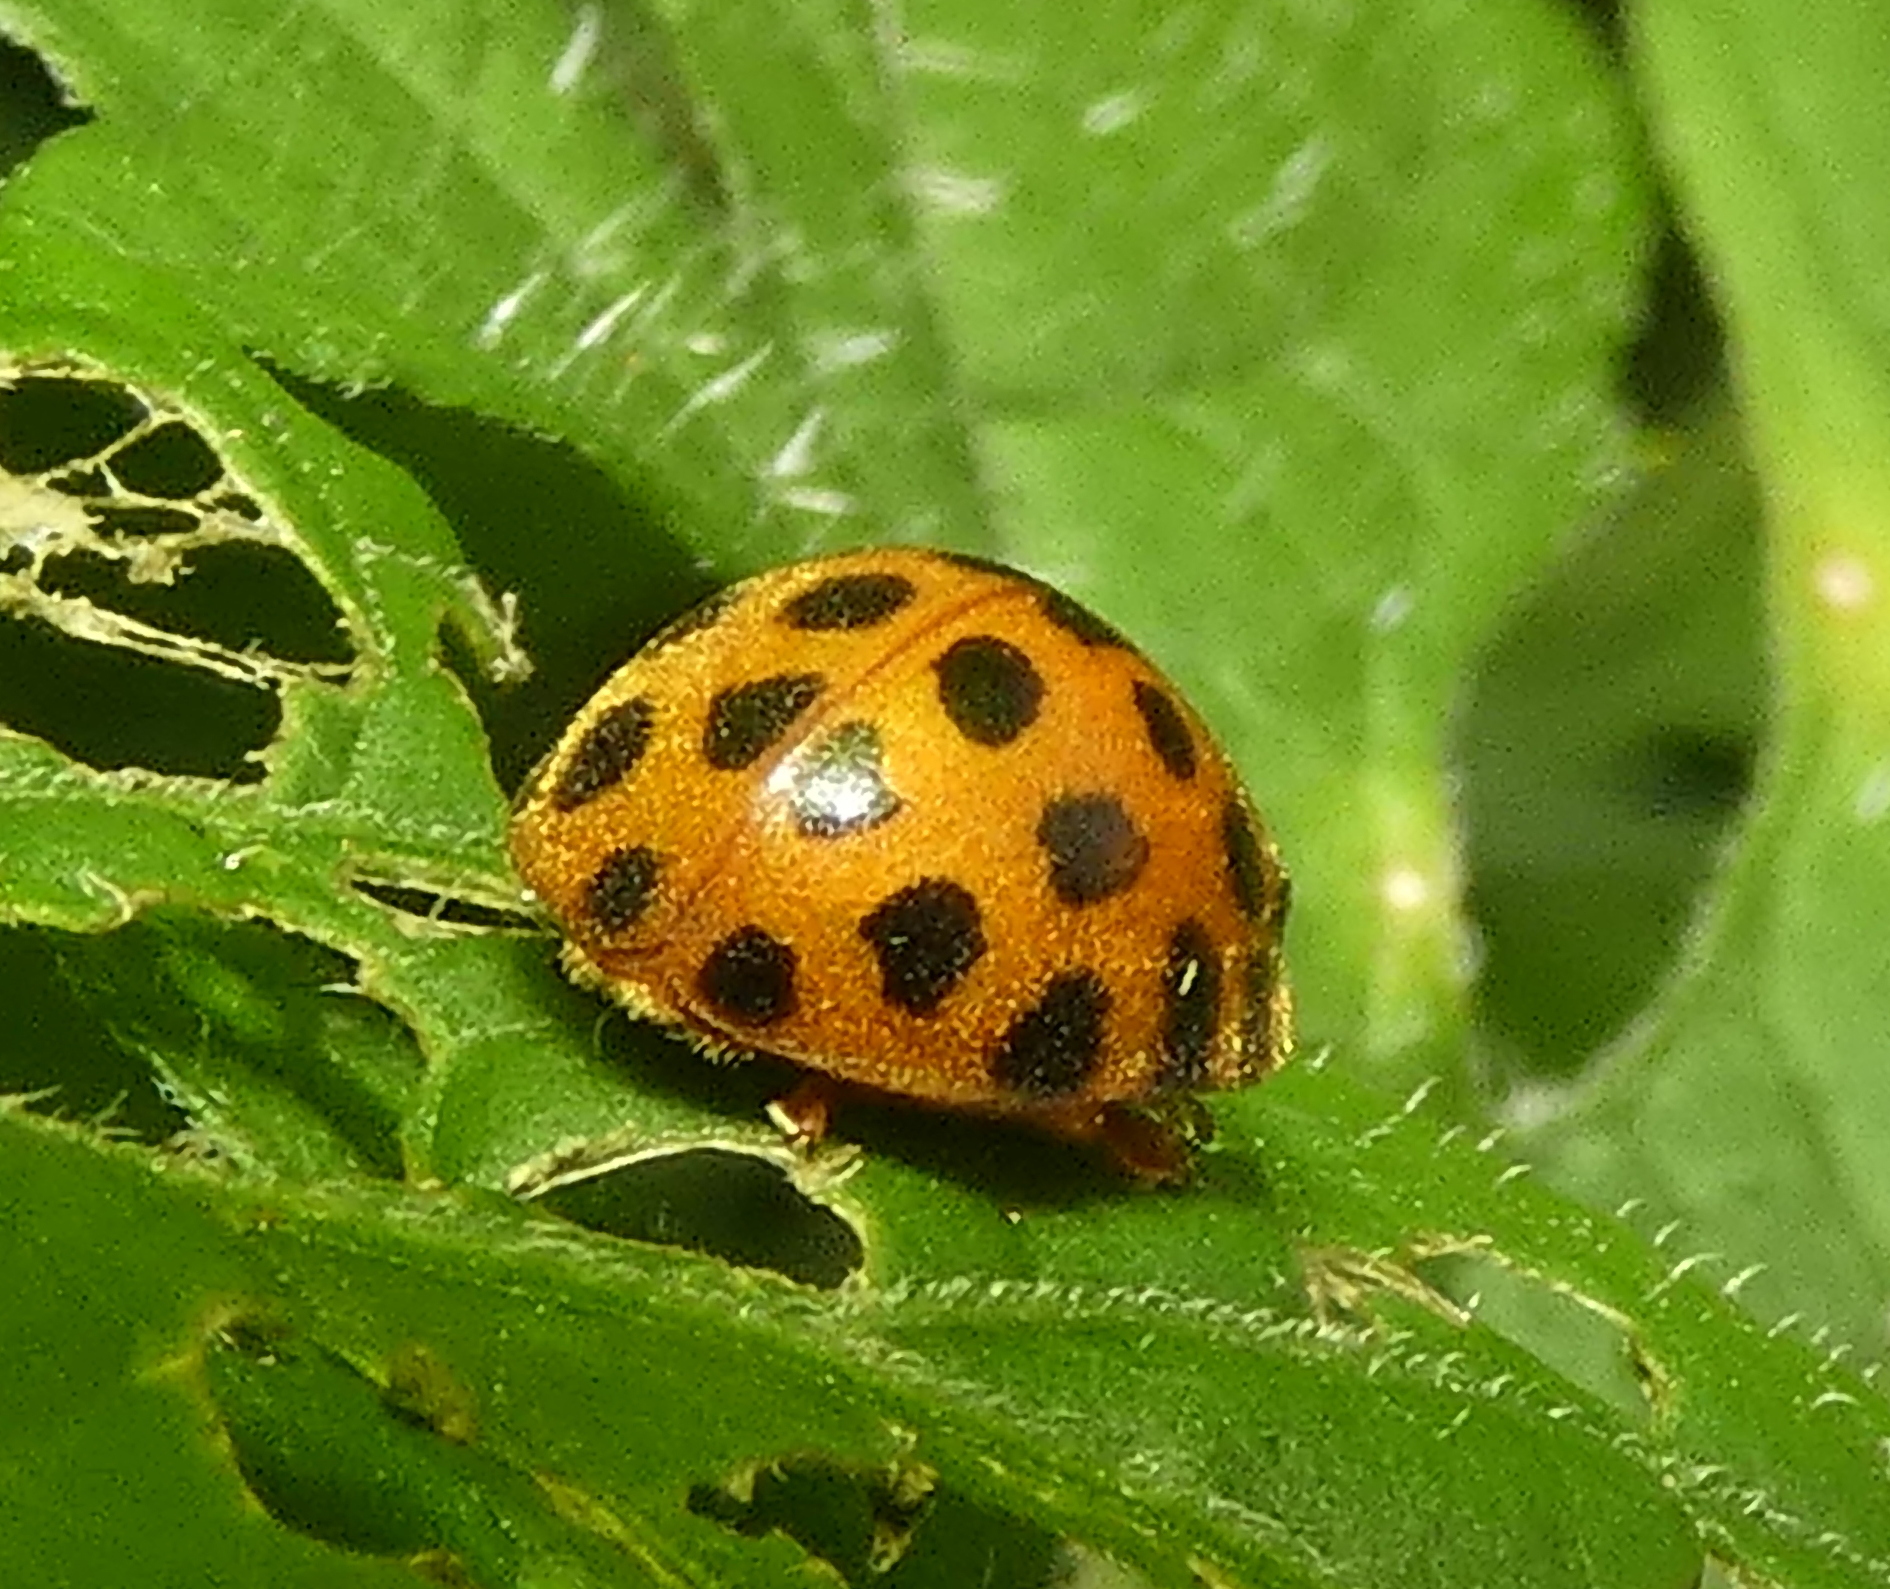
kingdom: Animalia
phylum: Arthropoda
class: Insecta
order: Coleoptera
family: Coccinellidae
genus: Henosepilachna
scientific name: Henosepilachna vigintioctopunctata
